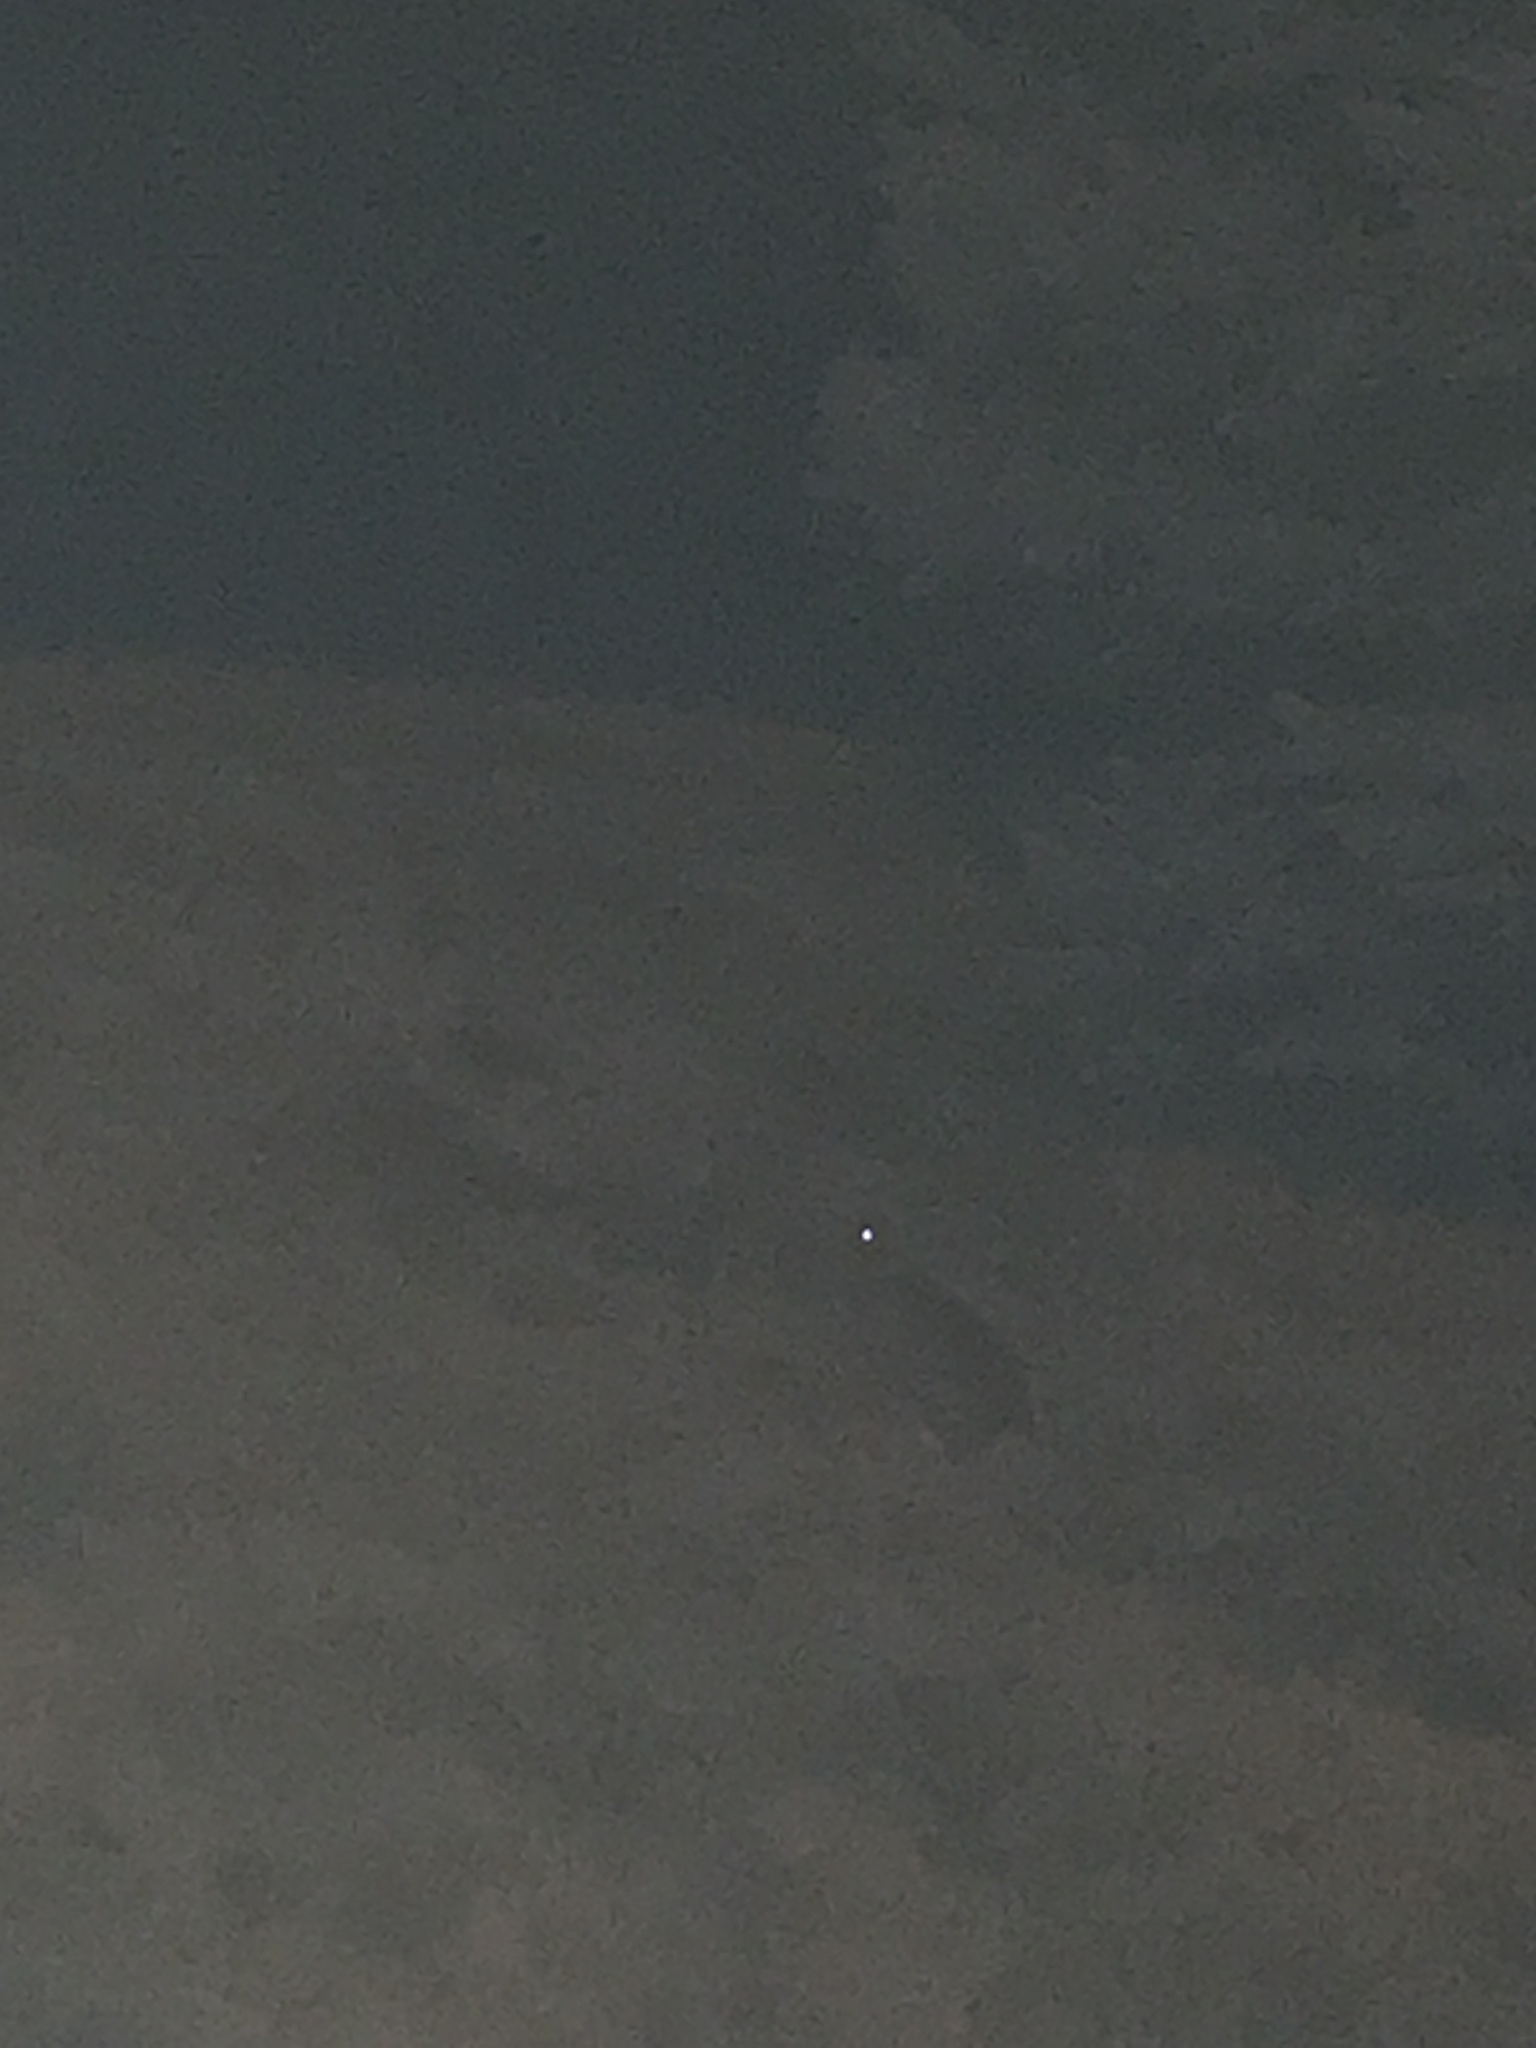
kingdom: Animalia
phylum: Chordata
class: Mammalia
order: Lagomorpha
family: Leporidae
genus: Sylvilagus
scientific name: Sylvilagus floridanus
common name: Eastern cottontail
